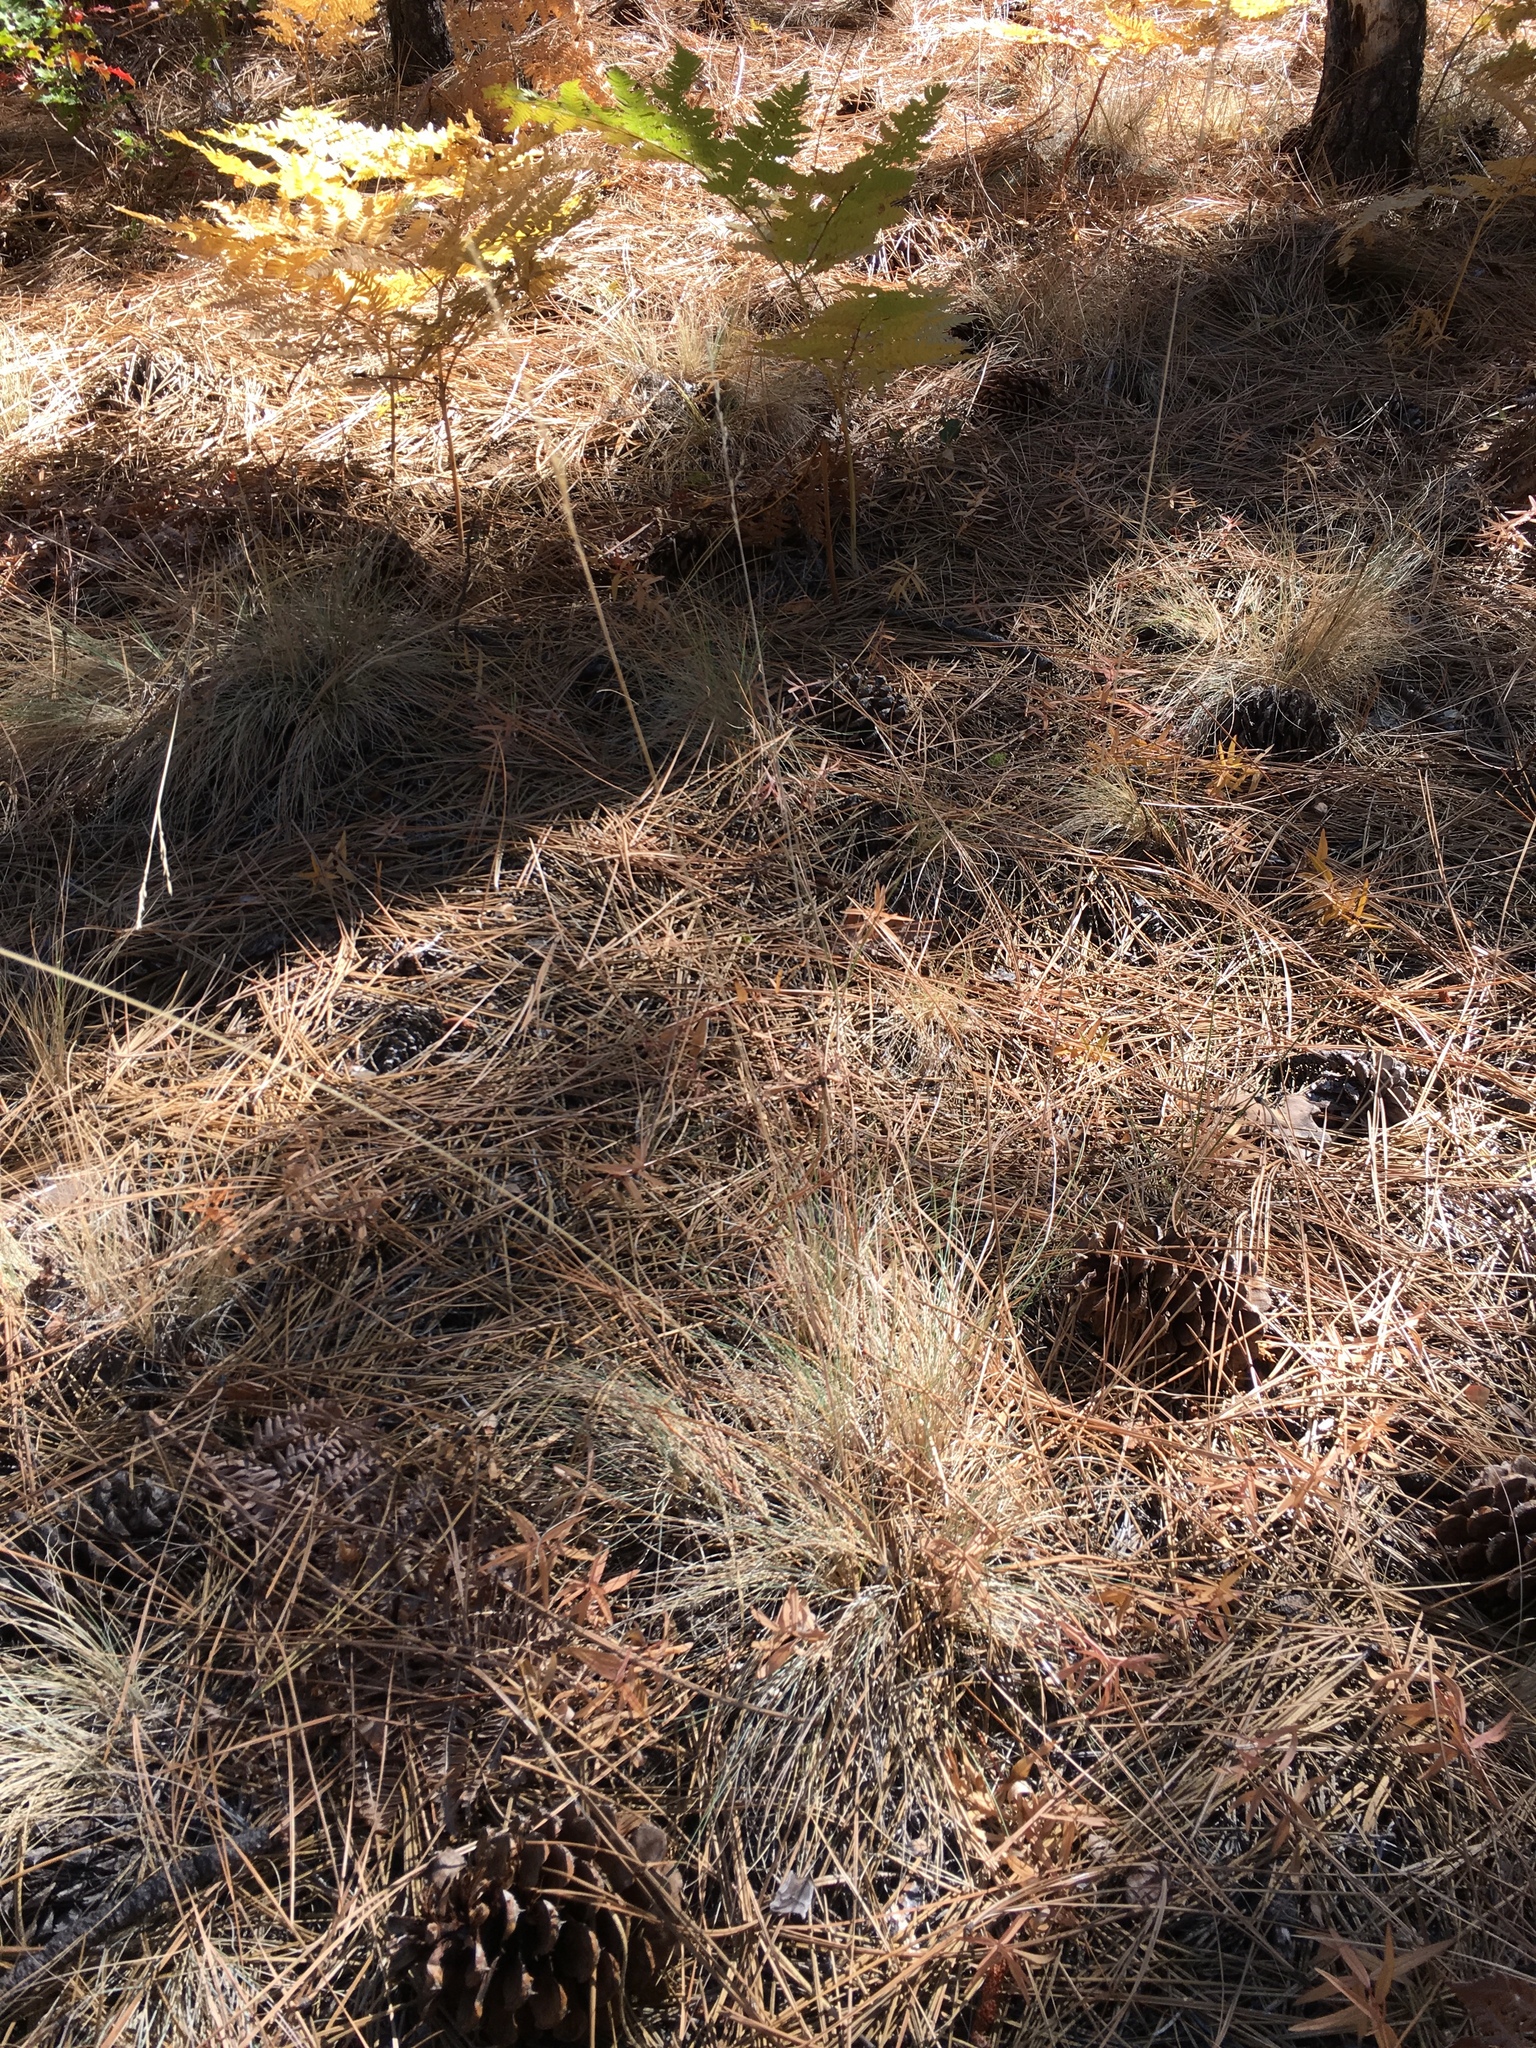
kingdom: Plantae
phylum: Tracheophyta
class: Liliopsida
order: Poales
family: Poaceae
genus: Festuca
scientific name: Festuca idahoensis
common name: Idaho fescue
